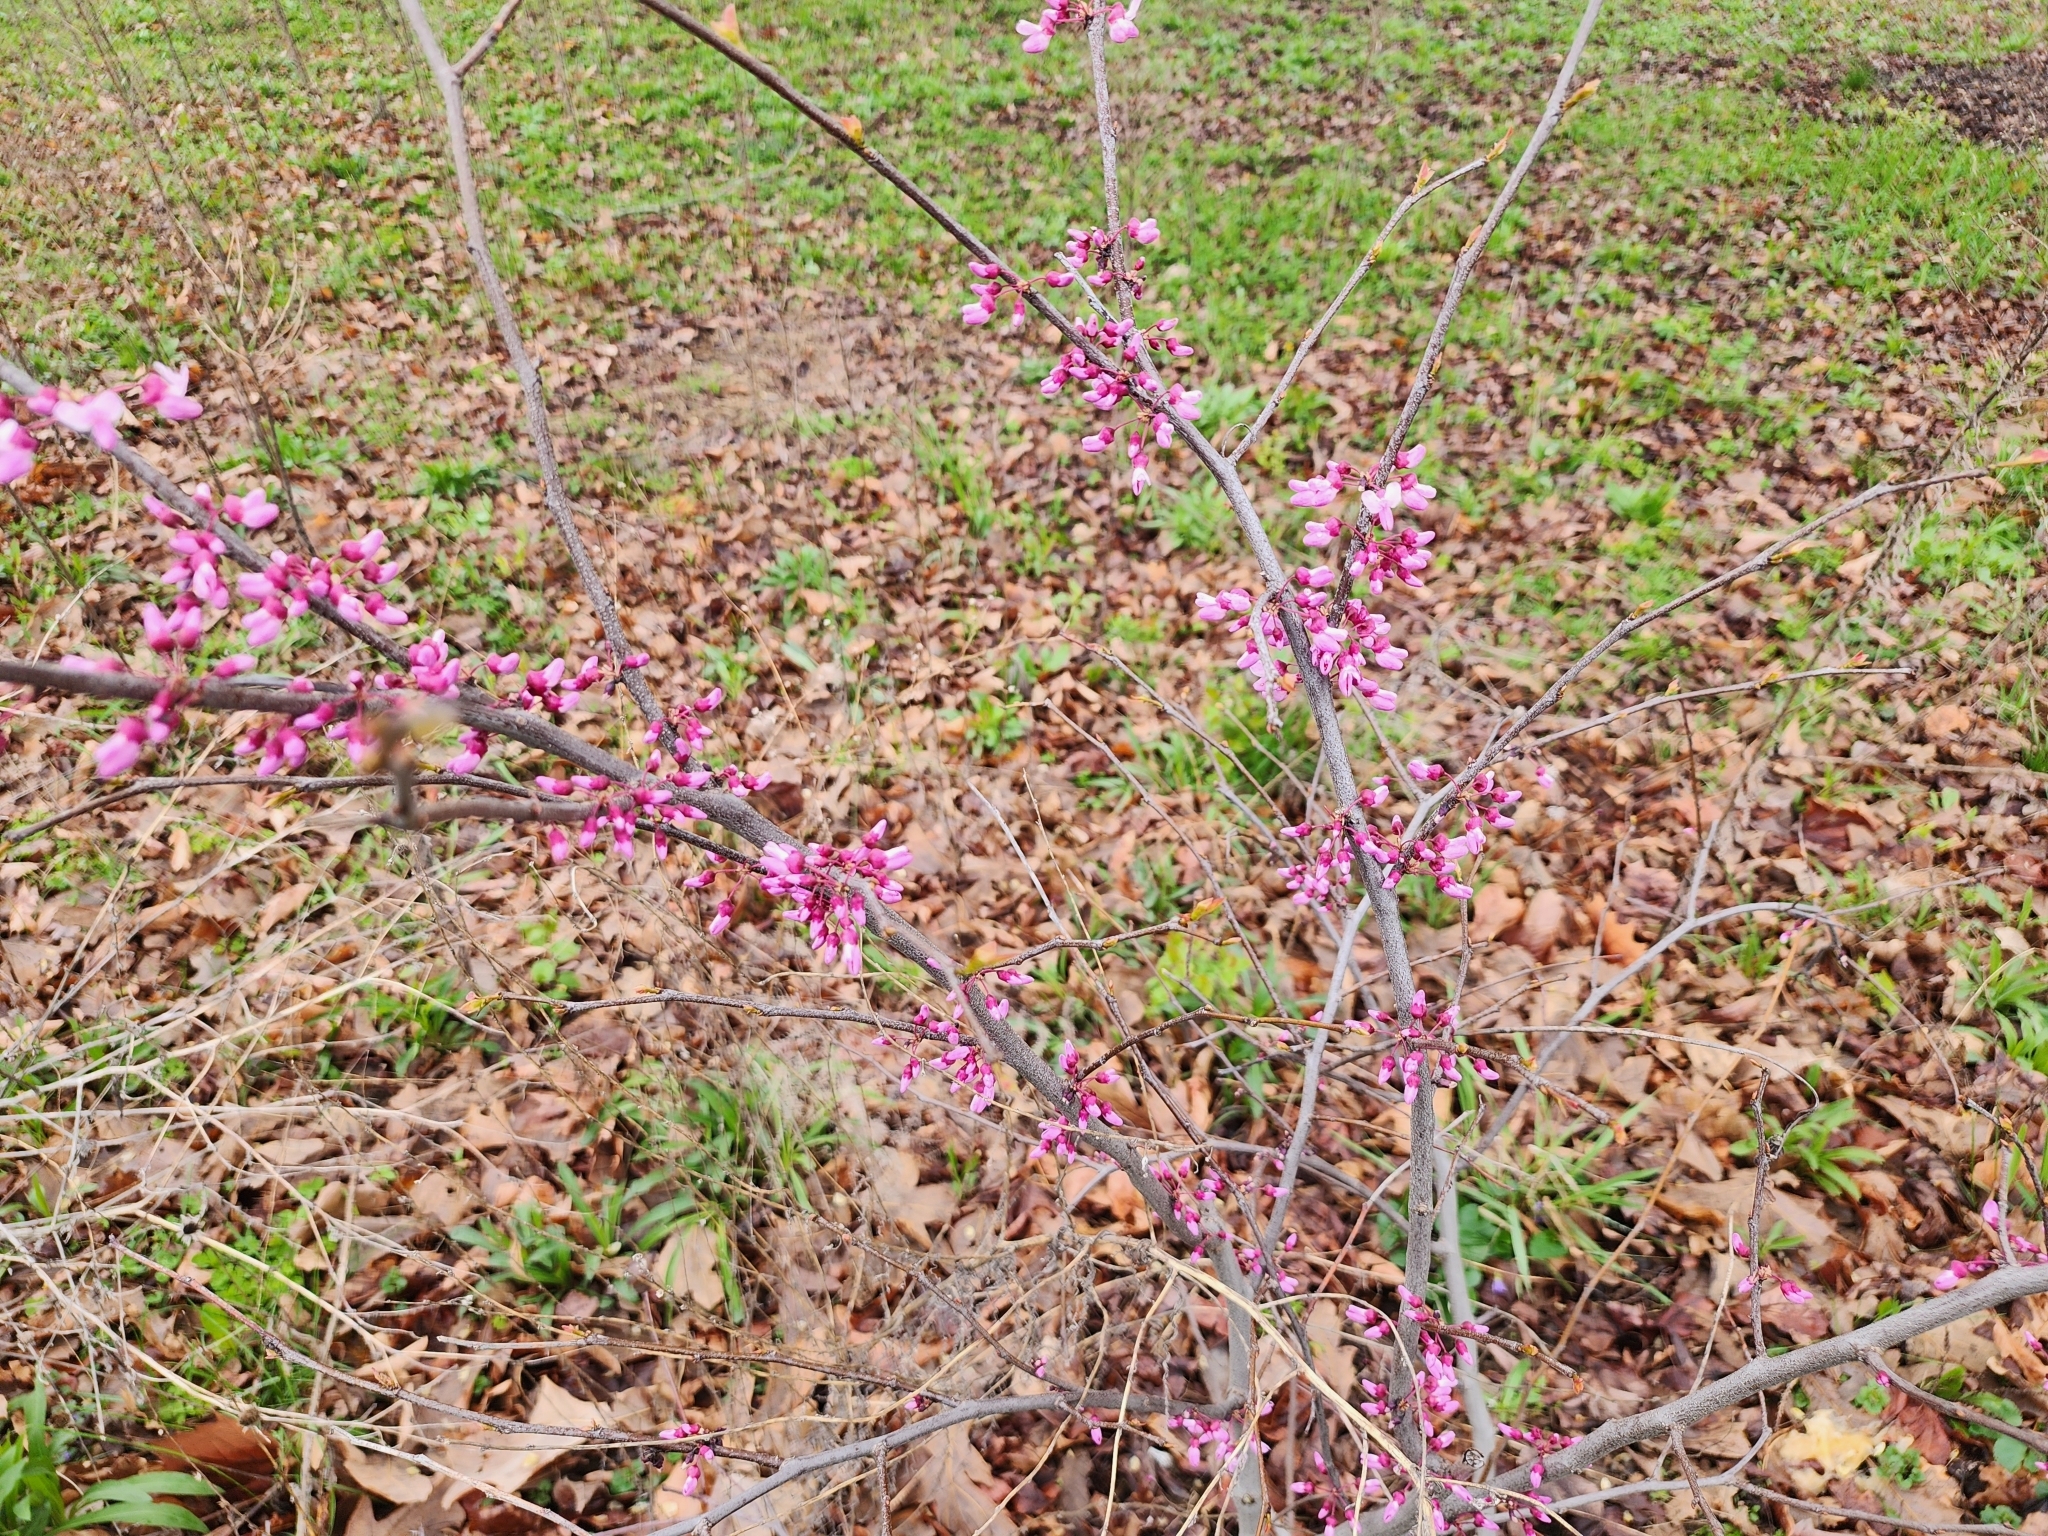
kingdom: Plantae
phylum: Tracheophyta
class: Magnoliopsida
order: Fabales
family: Fabaceae
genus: Cercis
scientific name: Cercis canadensis
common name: Eastern redbud
